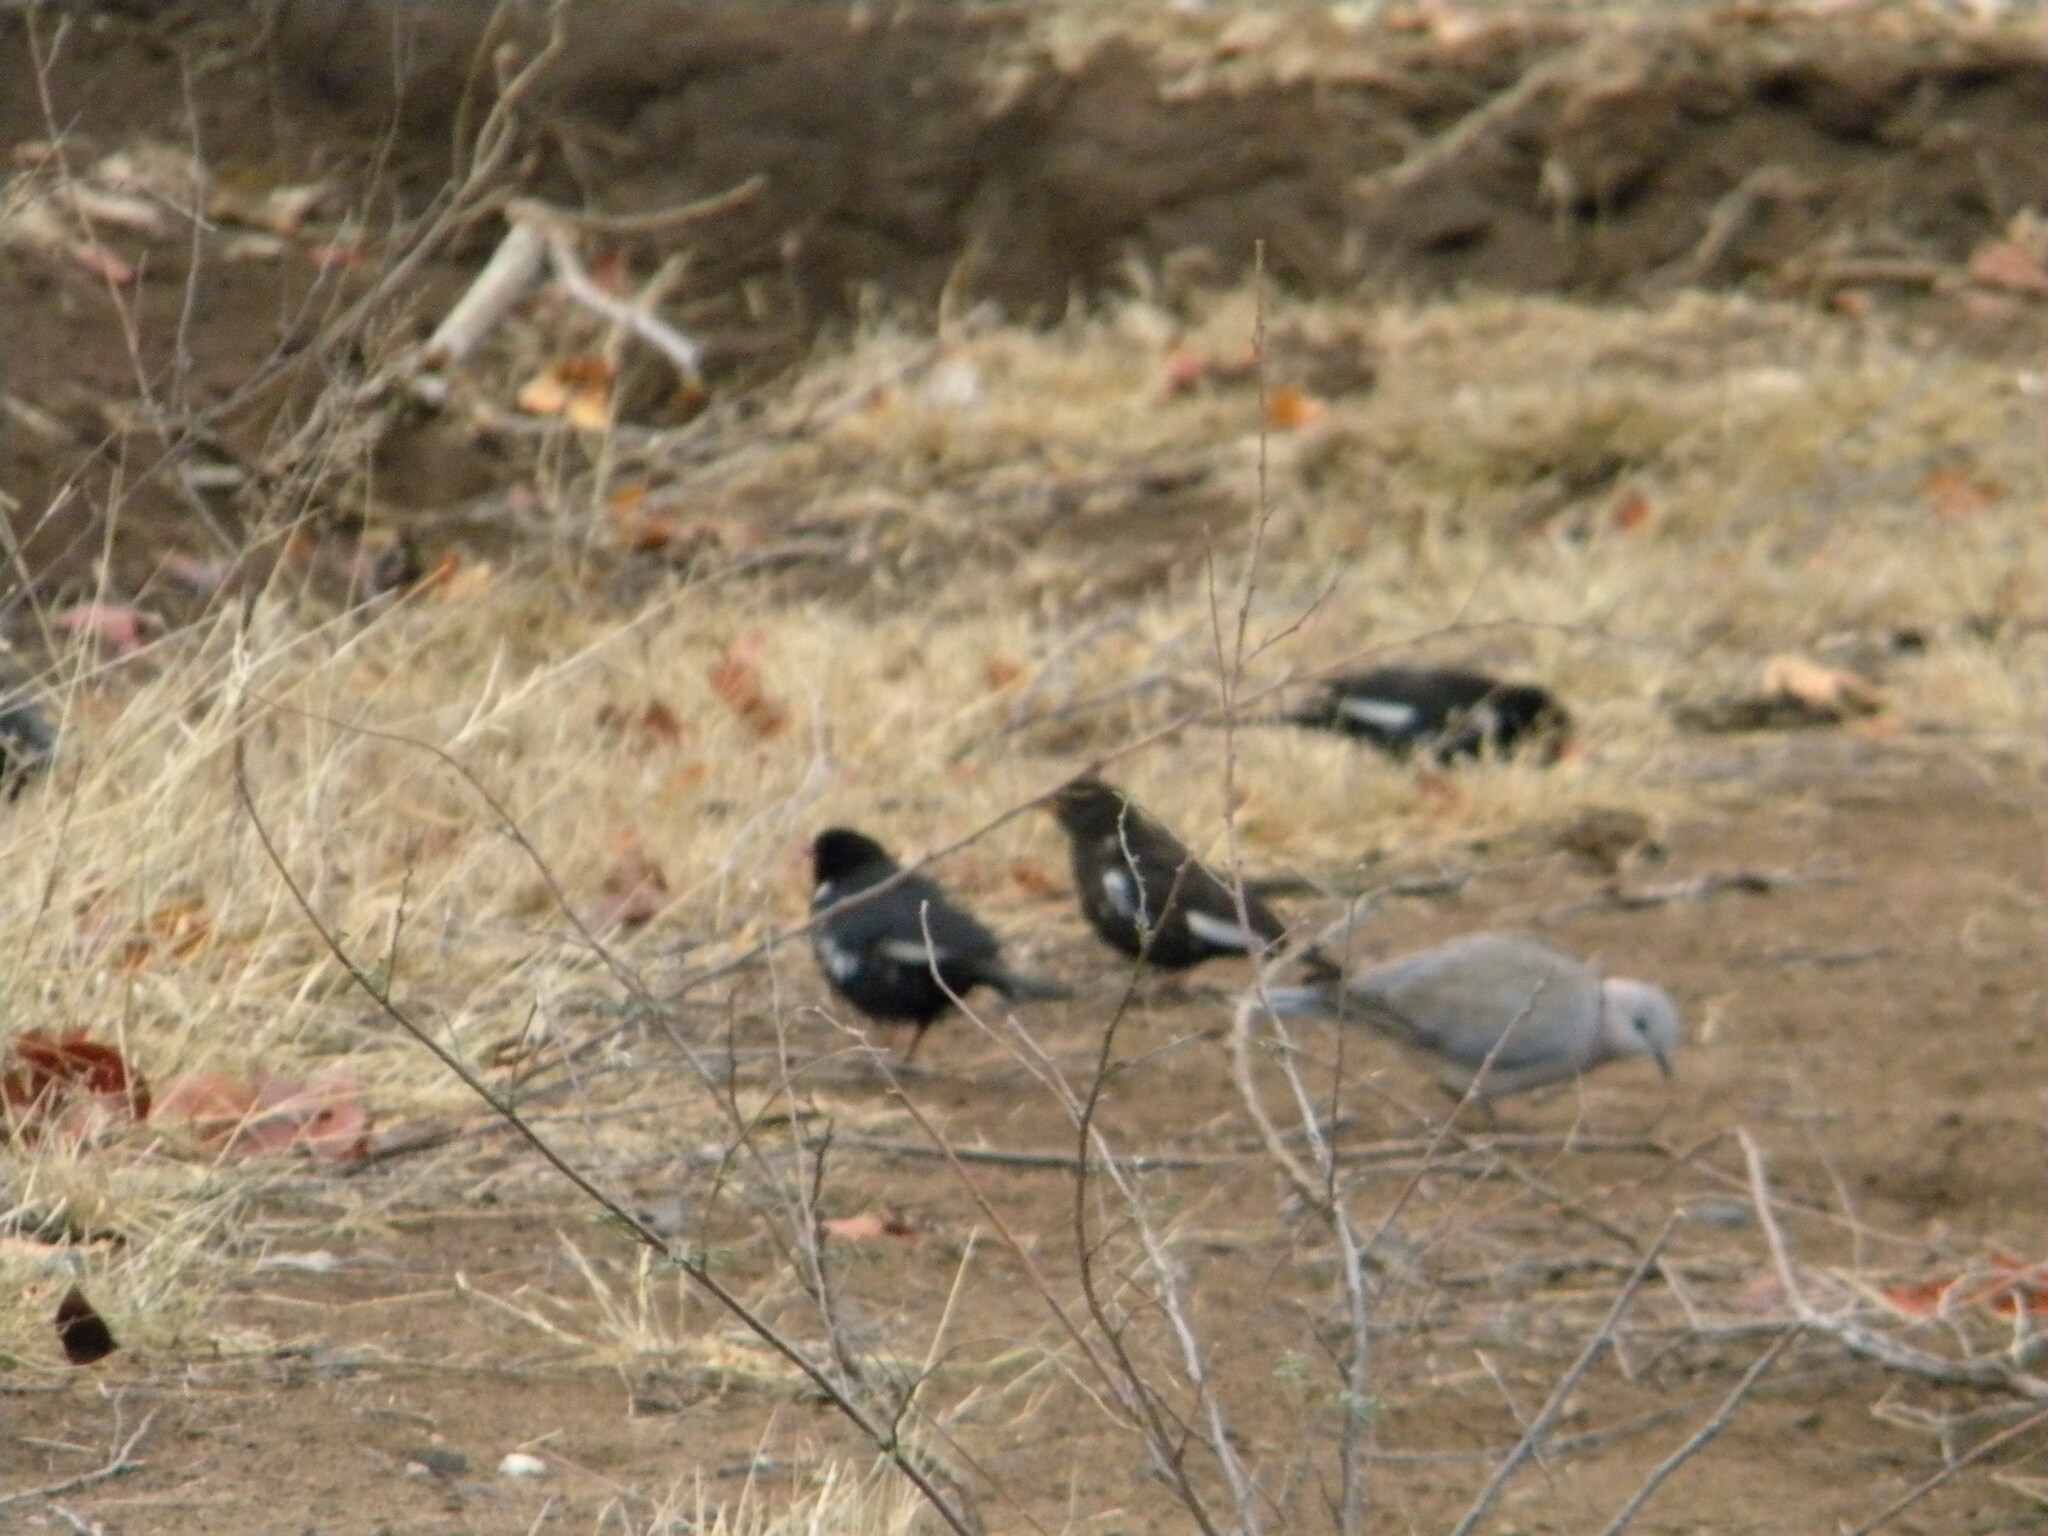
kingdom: Animalia
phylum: Chordata
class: Aves
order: Passeriformes
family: Ploceidae
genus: Bubalornis
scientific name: Bubalornis niger
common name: Red-billed buffalo weaver
